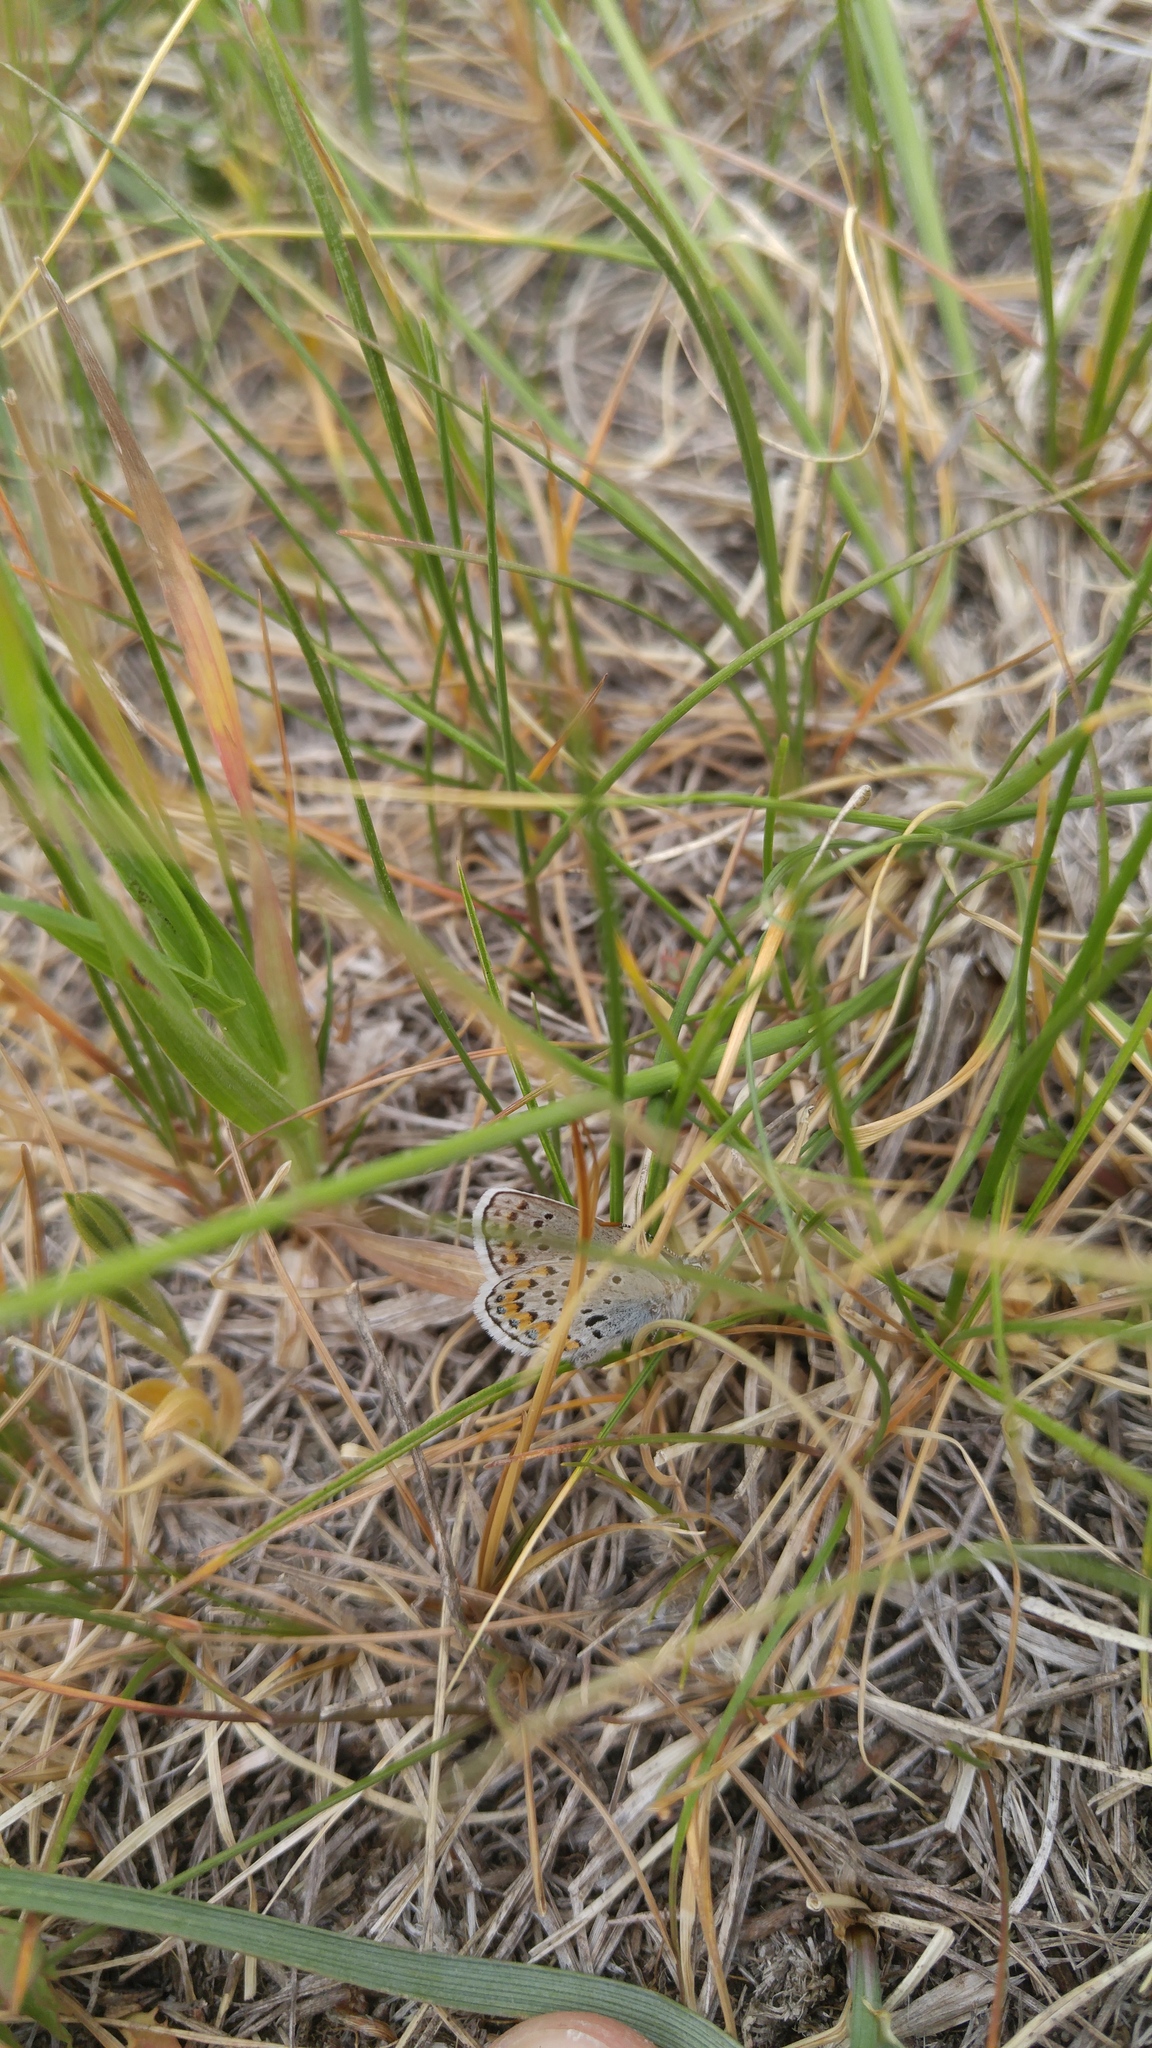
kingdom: Animalia
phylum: Arthropoda
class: Insecta
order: Lepidoptera
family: Lycaenidae
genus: Lycaeides
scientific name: Lycaeides melissa
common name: Melissa blue
